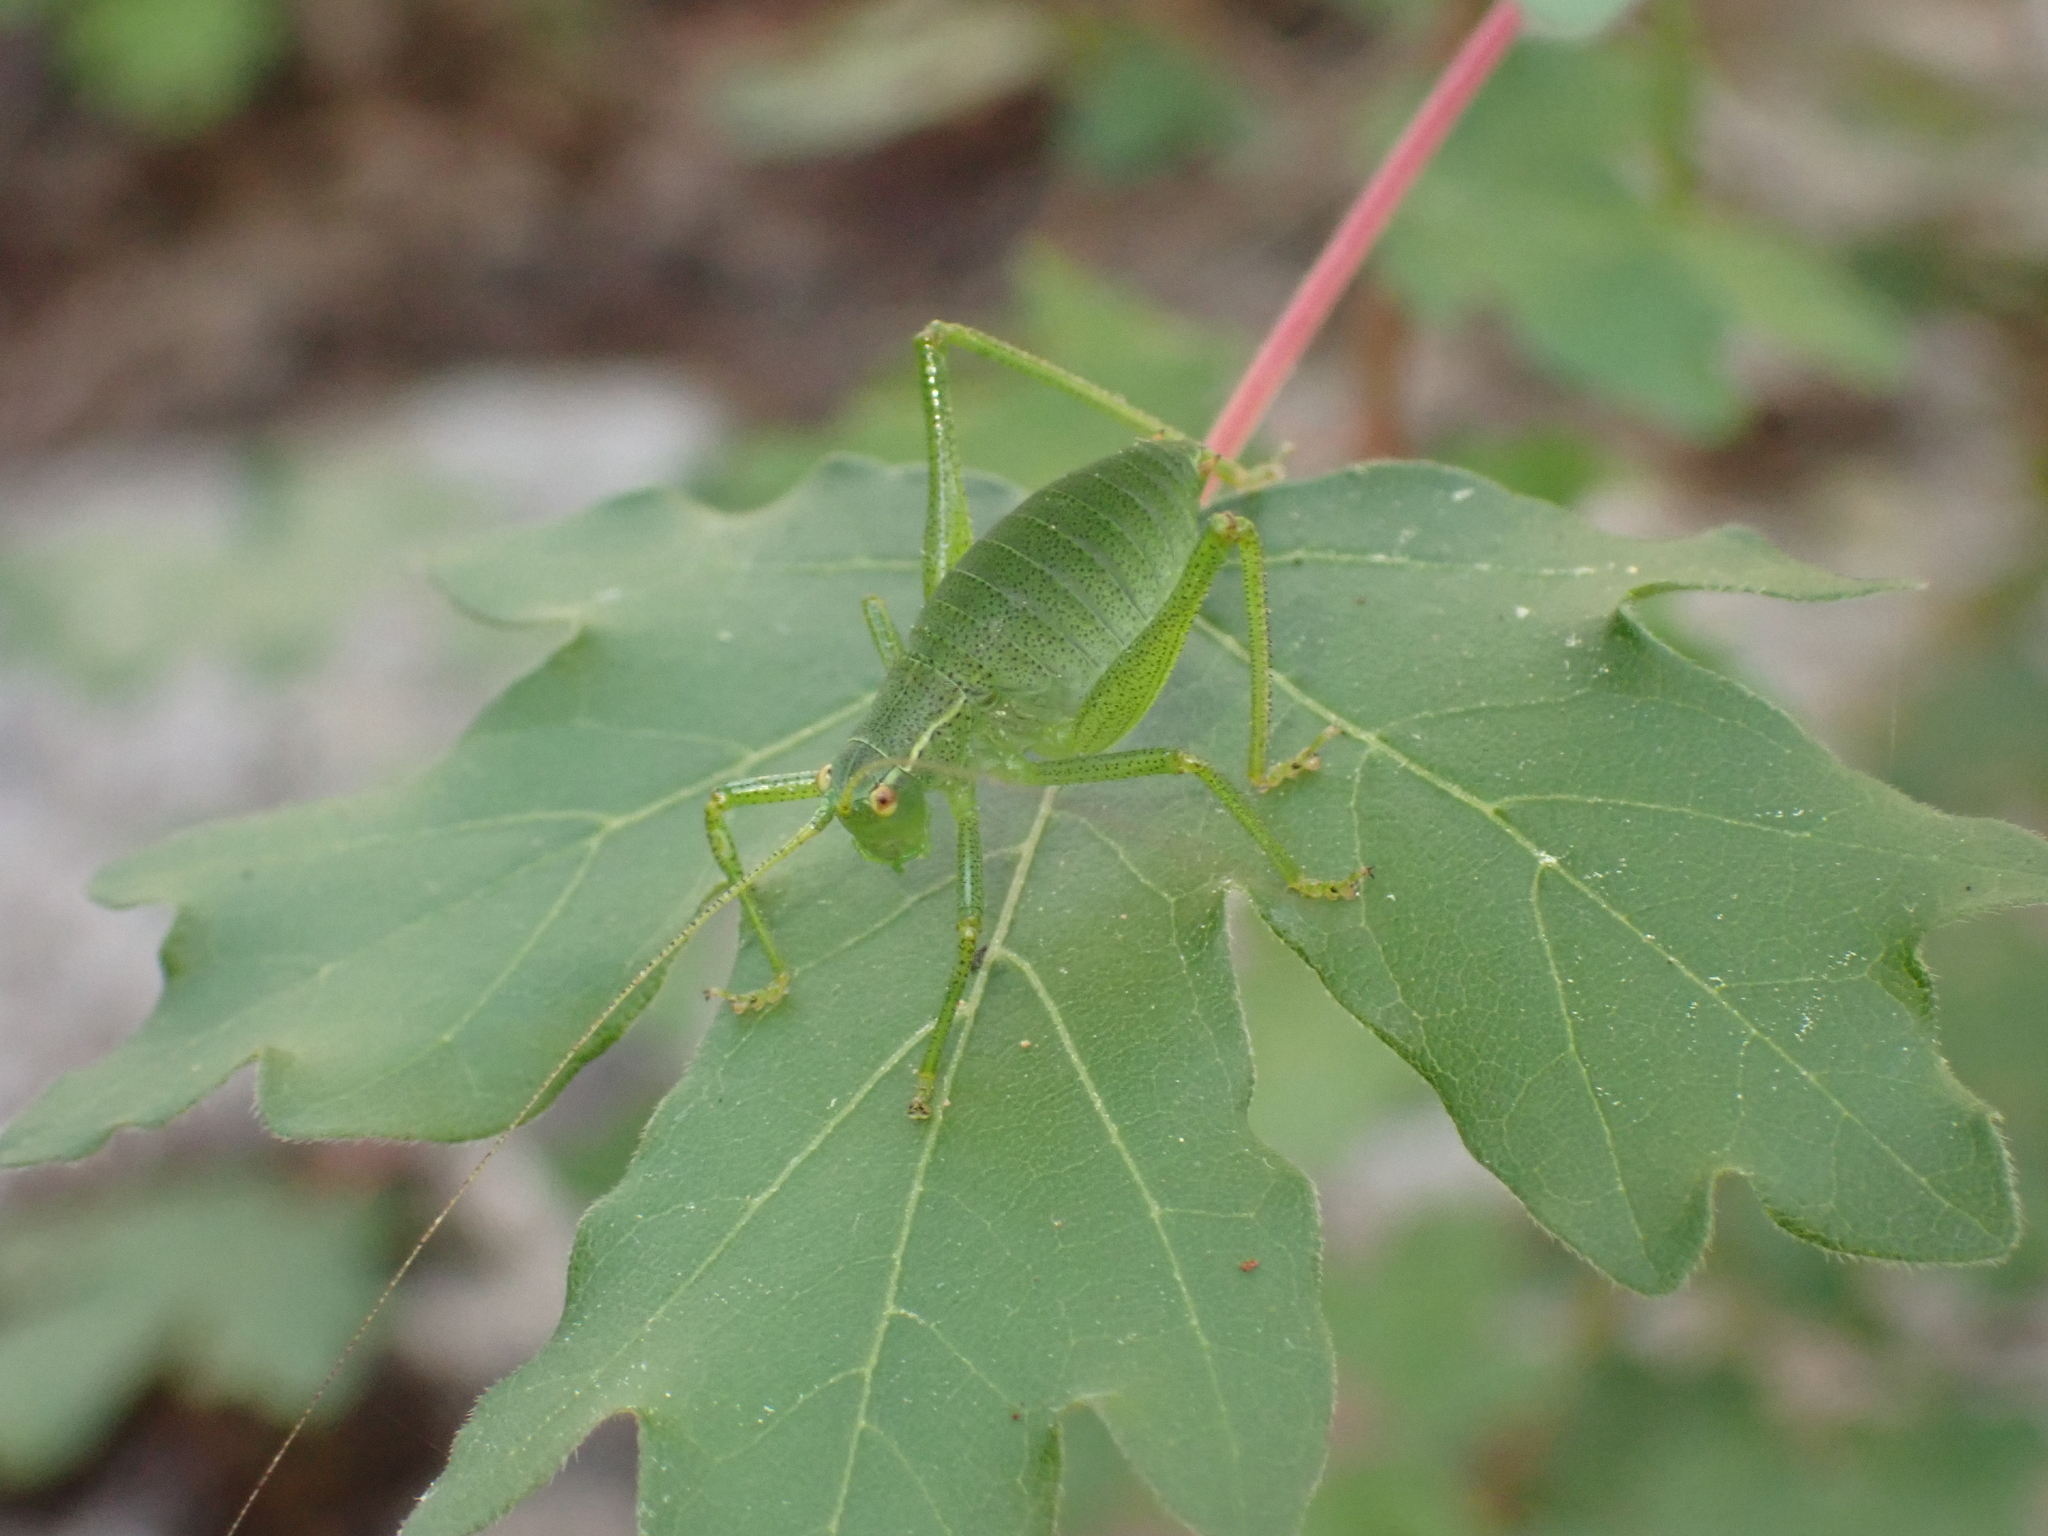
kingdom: Animalia
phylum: Arthropoda
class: Insecta
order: Orthoptera
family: Tettigoniidae
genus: Leptophyes
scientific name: Leptophyes punctatissima
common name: Speckled bush-cricket
